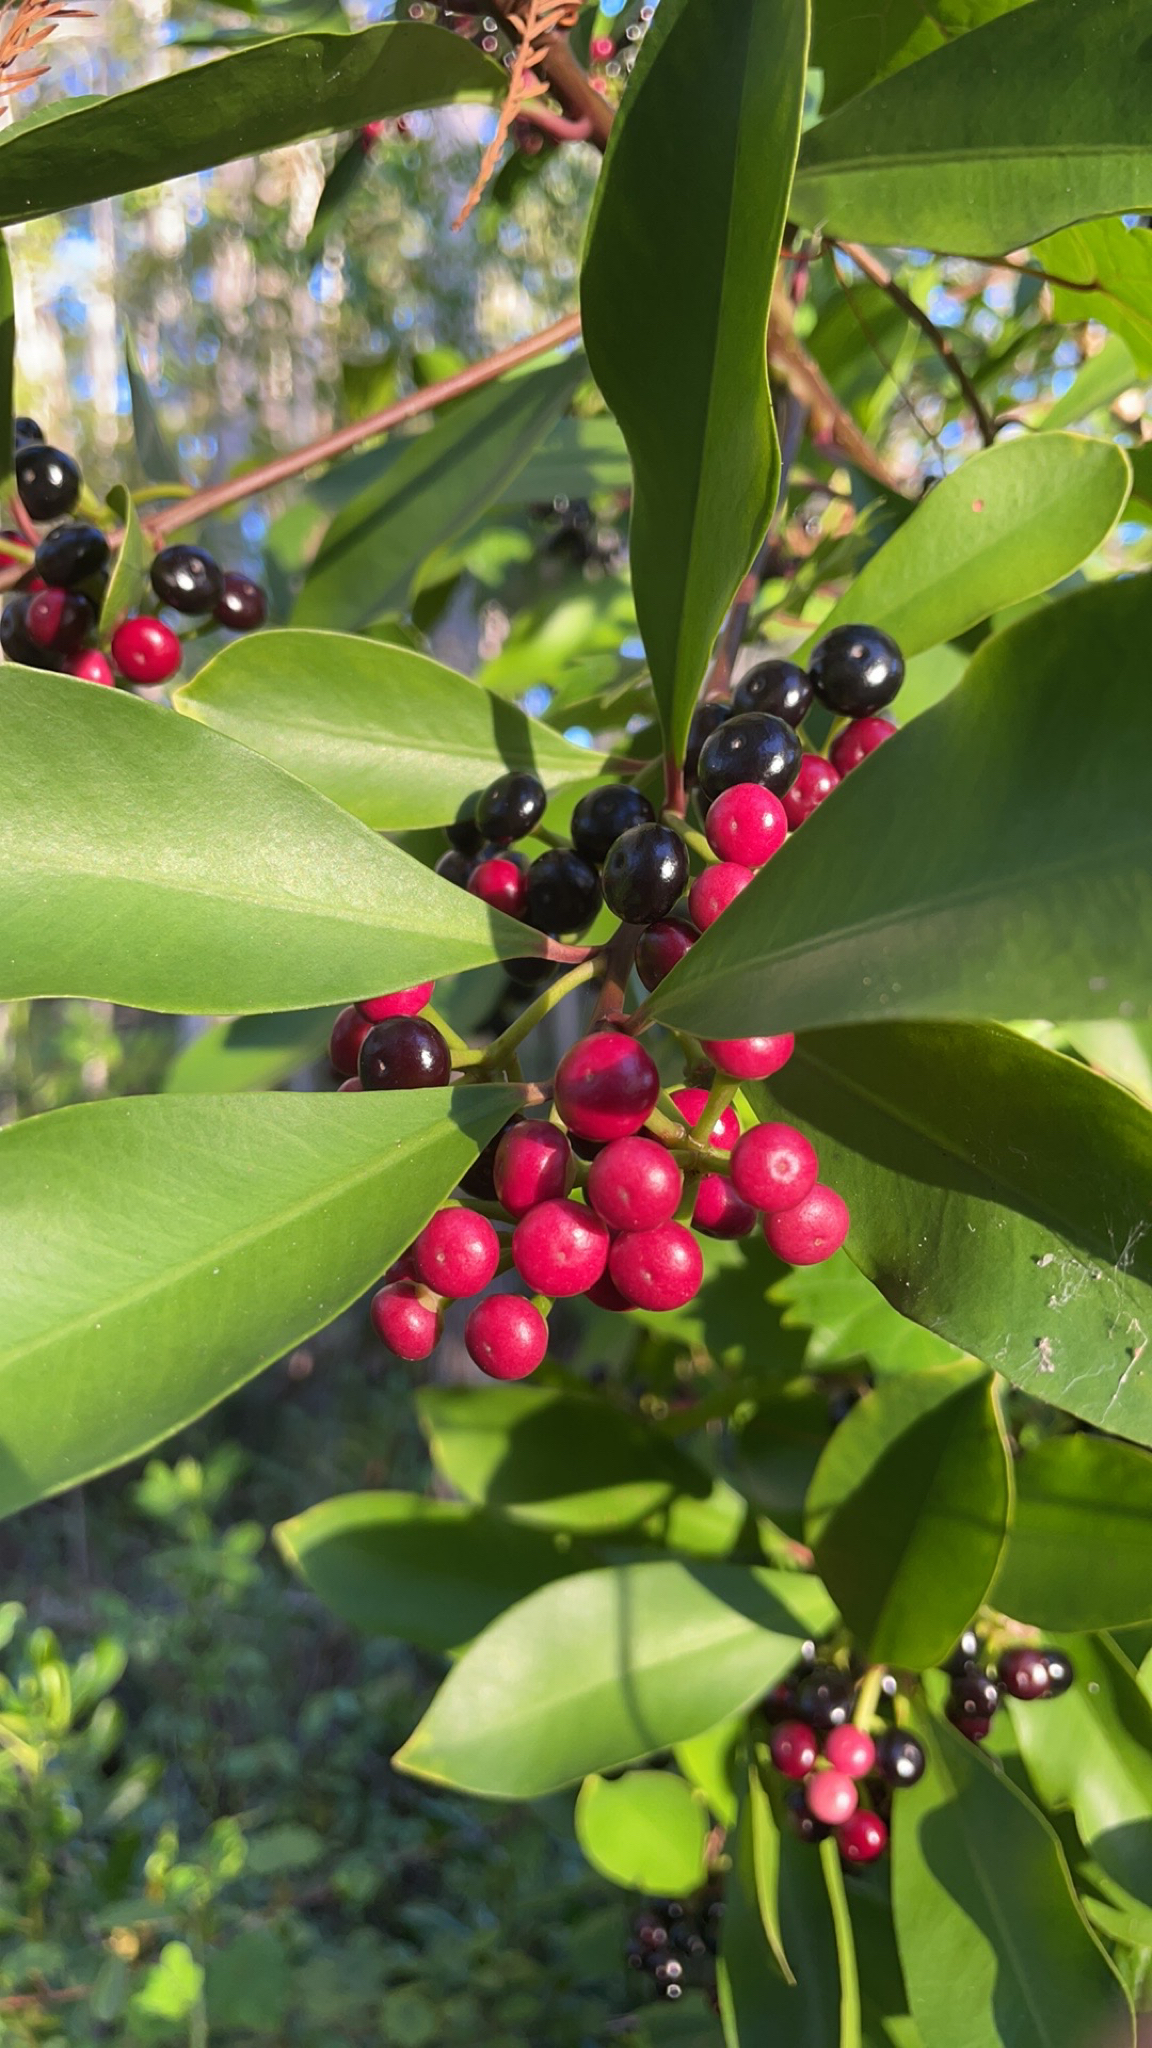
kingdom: Plantae
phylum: Tracheophyta
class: Magnoliopsida
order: Ericales
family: Primulaceae
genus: Ardisia
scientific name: Ardisia elliptica
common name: Shoebutton
